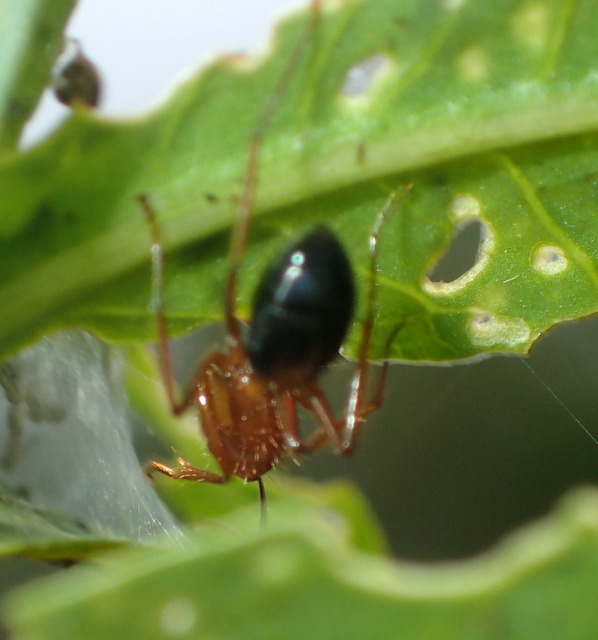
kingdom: Animalia
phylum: Arthropoda
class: Insecta
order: Hymenoptera
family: Formicidae
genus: Camponotus
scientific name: Camponotus floridanus
